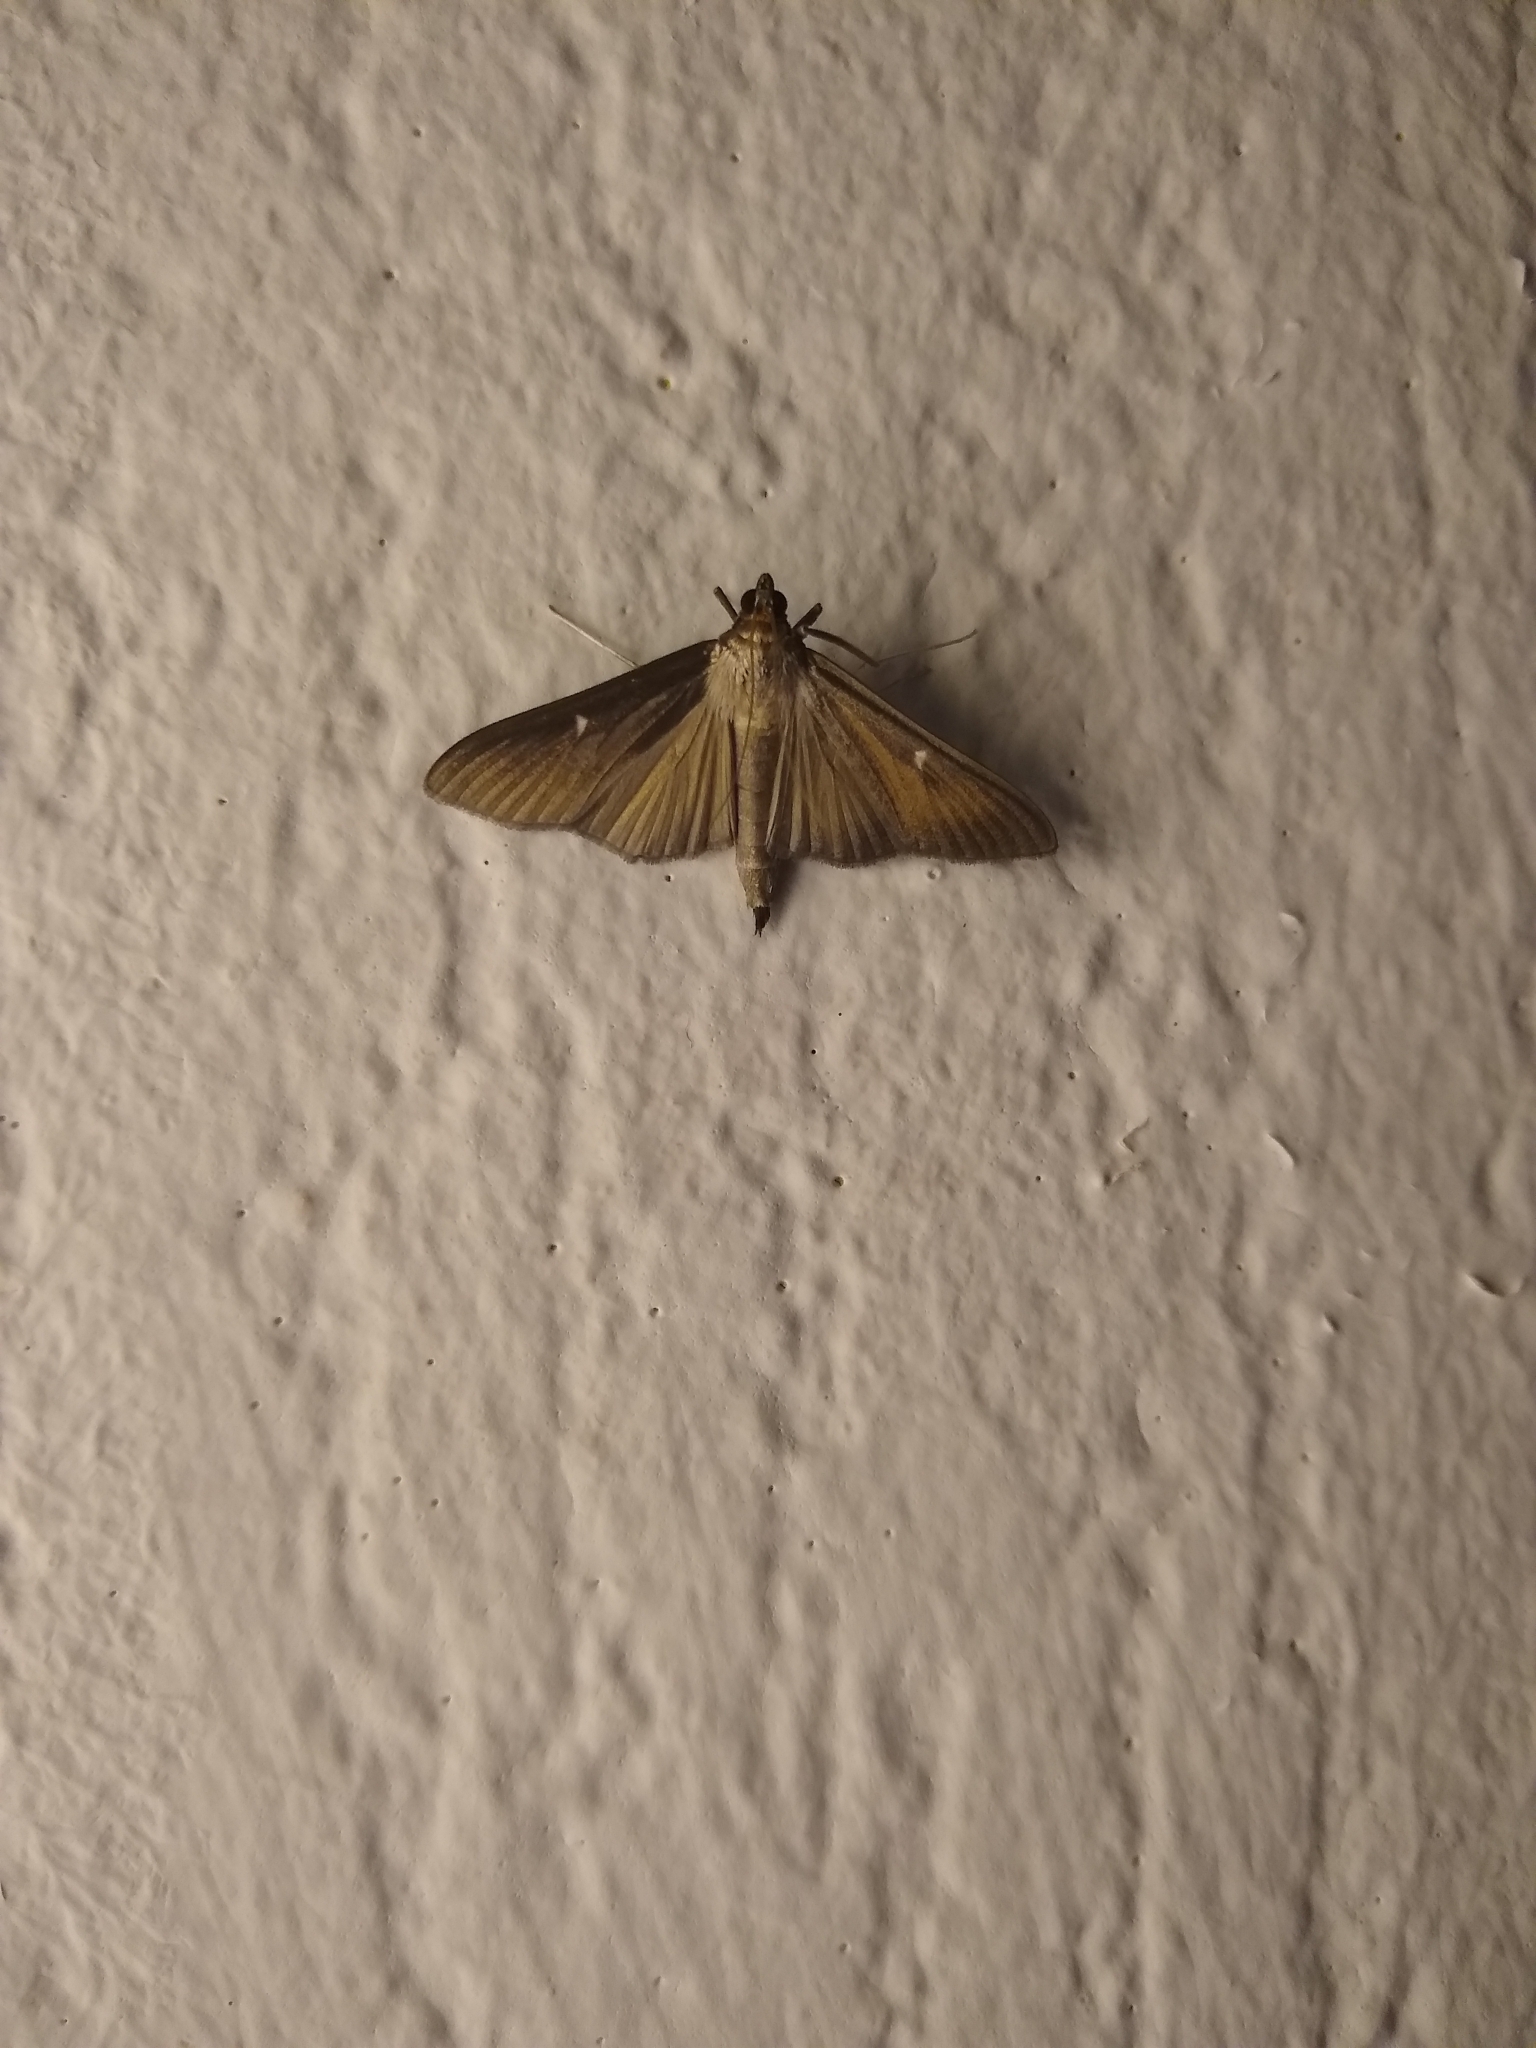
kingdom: Animalia
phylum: Arthropoda
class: Insecta
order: Lepidoptera
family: Crambidae
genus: Cydalima
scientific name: Cydalima perspectalis
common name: Box tree moth
